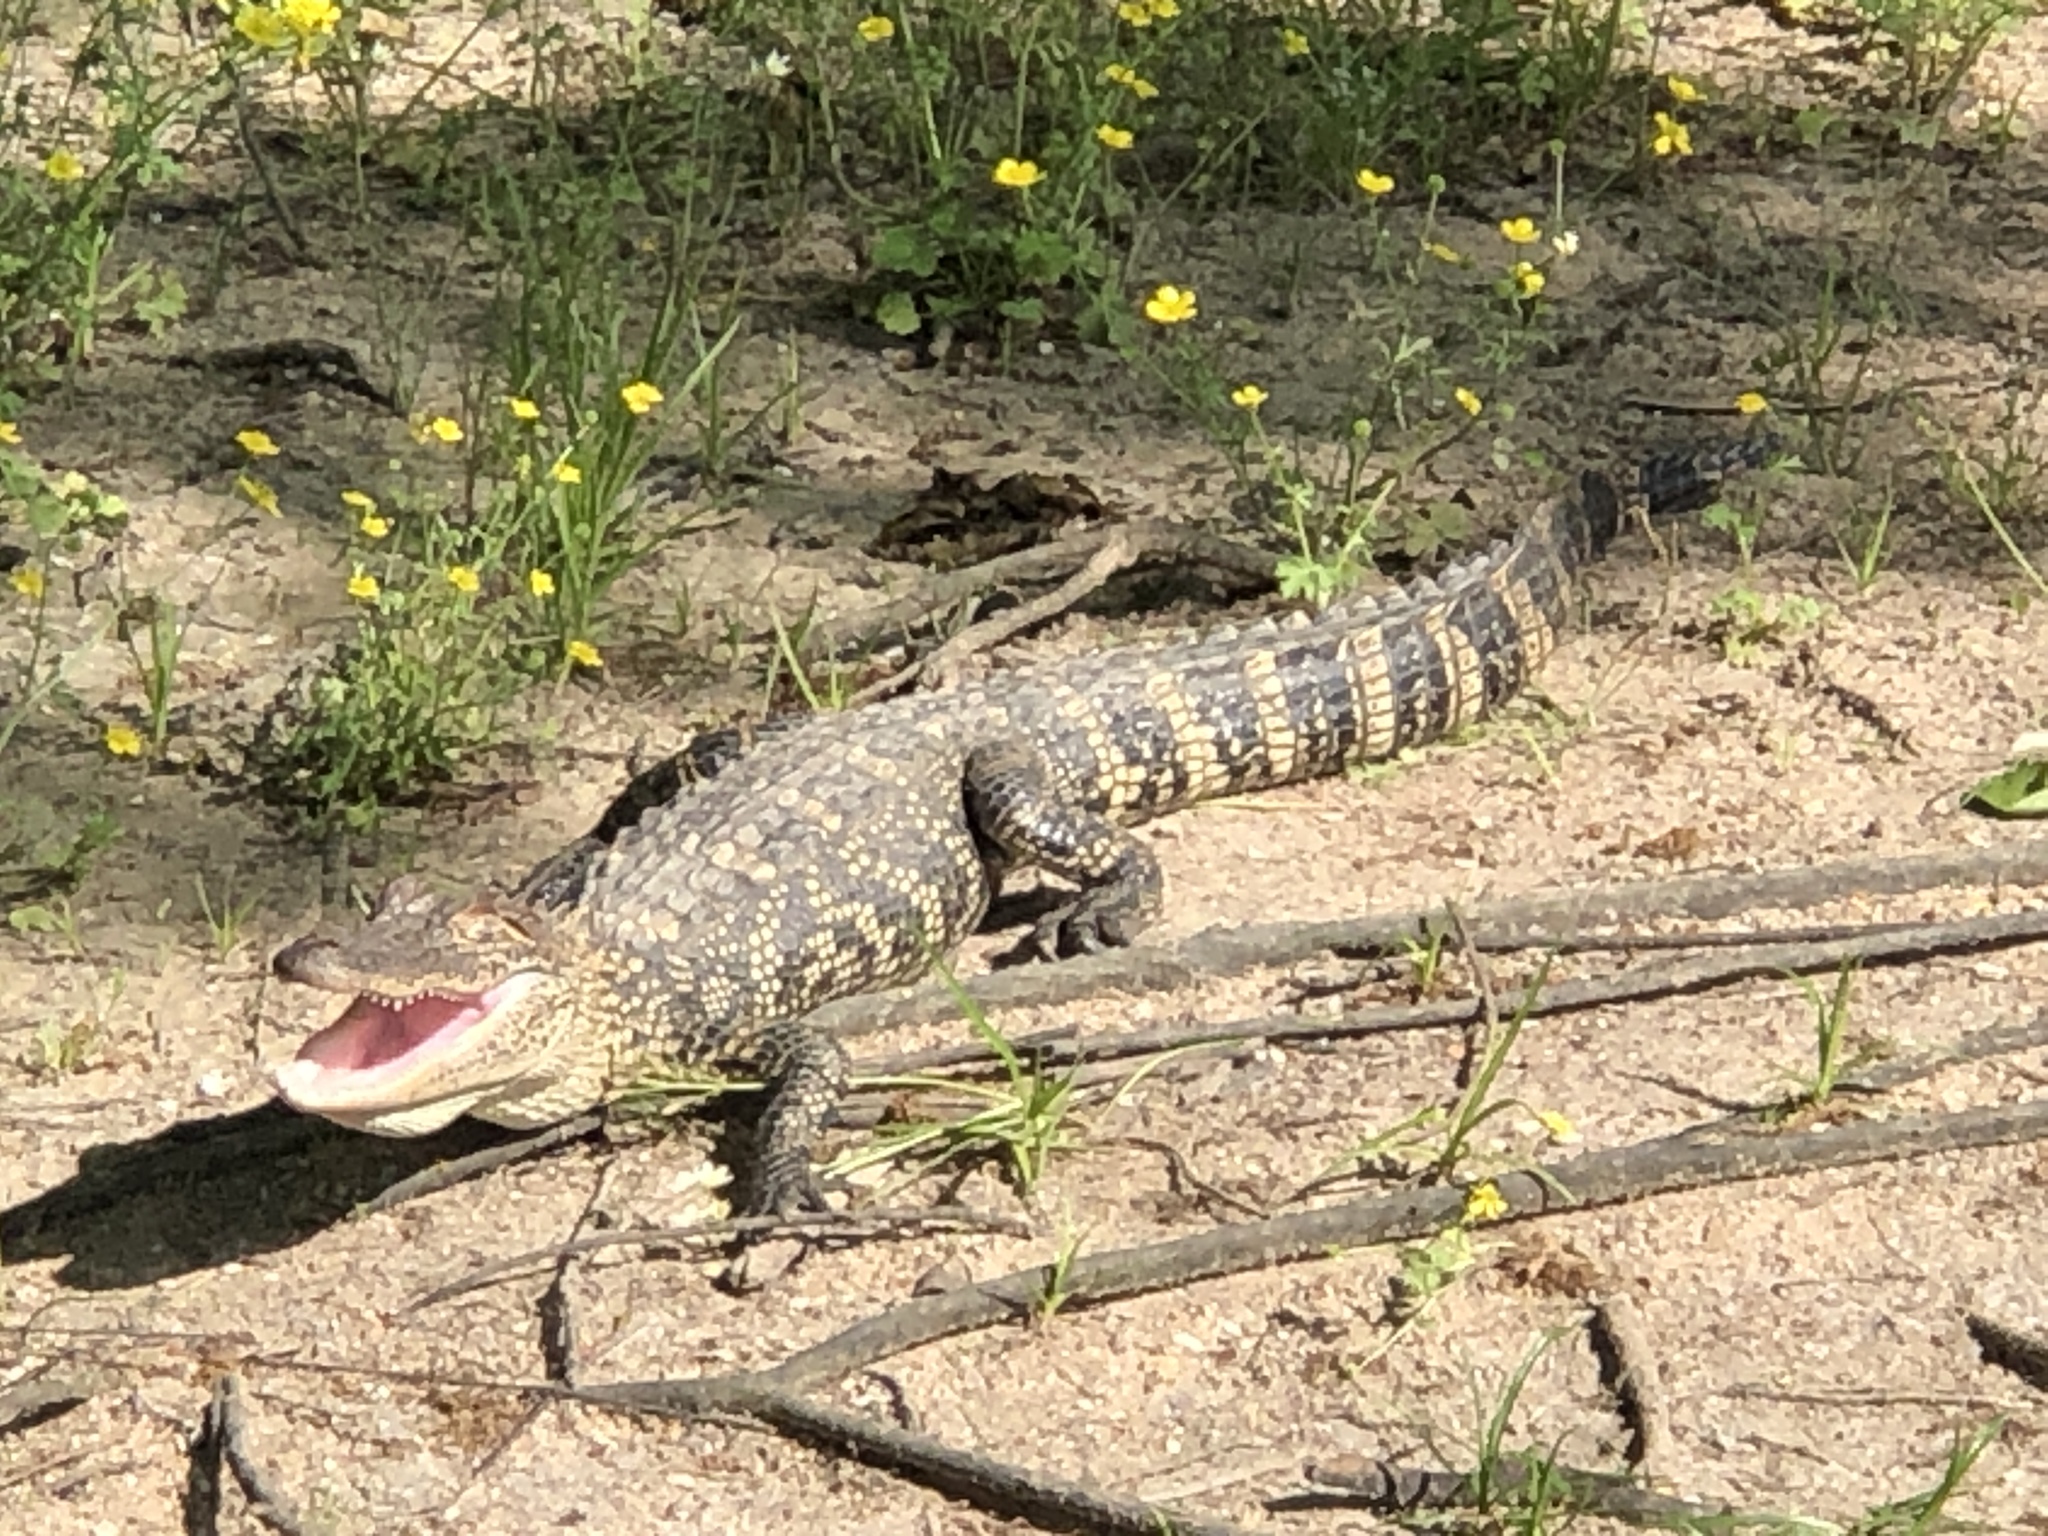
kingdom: Animalia
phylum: Chordata
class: Crocodylia
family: Alligatoridae
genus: Alligator
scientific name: Alligator mississippiensis
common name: American alligator
